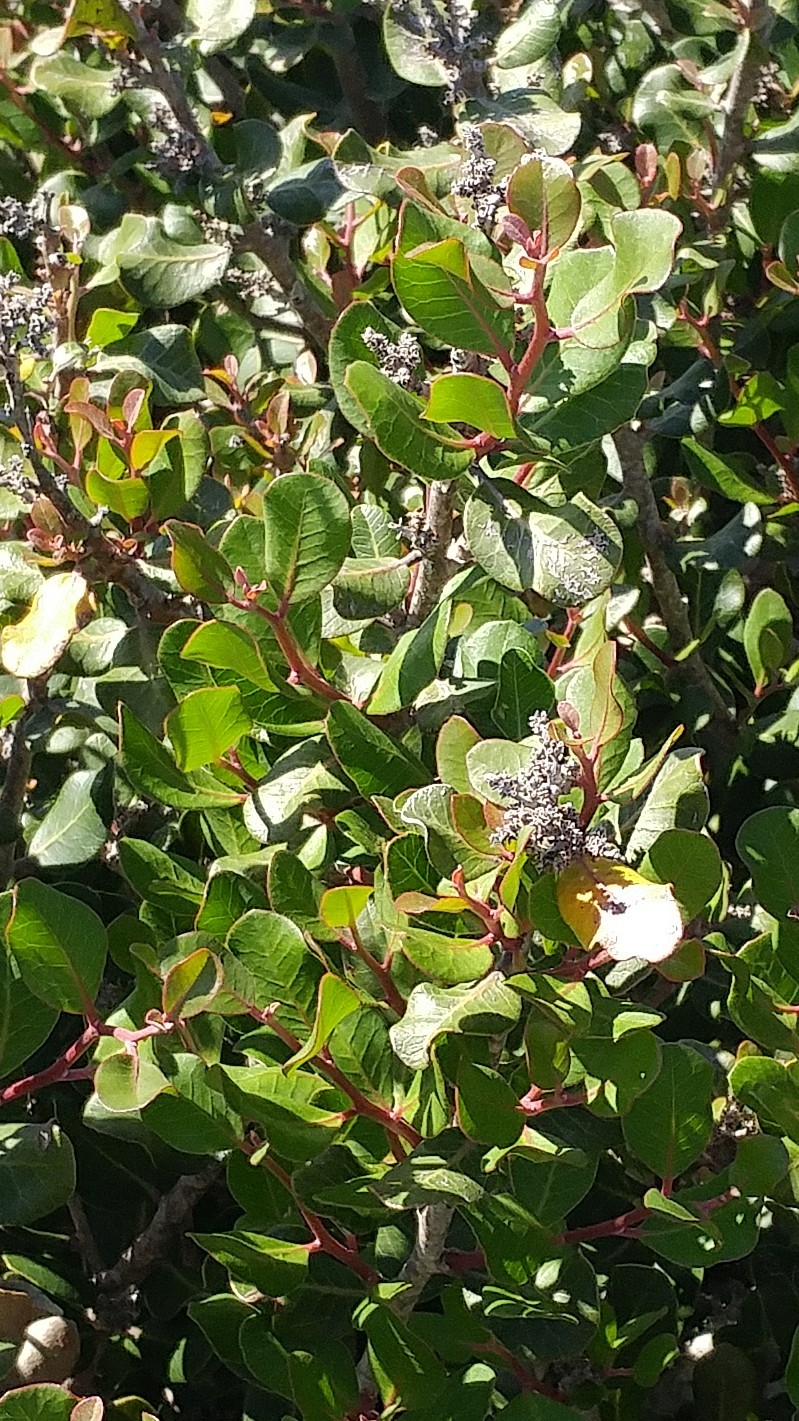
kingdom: Plantae
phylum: Tracheophyta
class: Magnoliopsida
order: Sapindales
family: Anacardiaceae
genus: Rhus
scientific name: Rhus integrifolia
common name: Lemonade sumac
